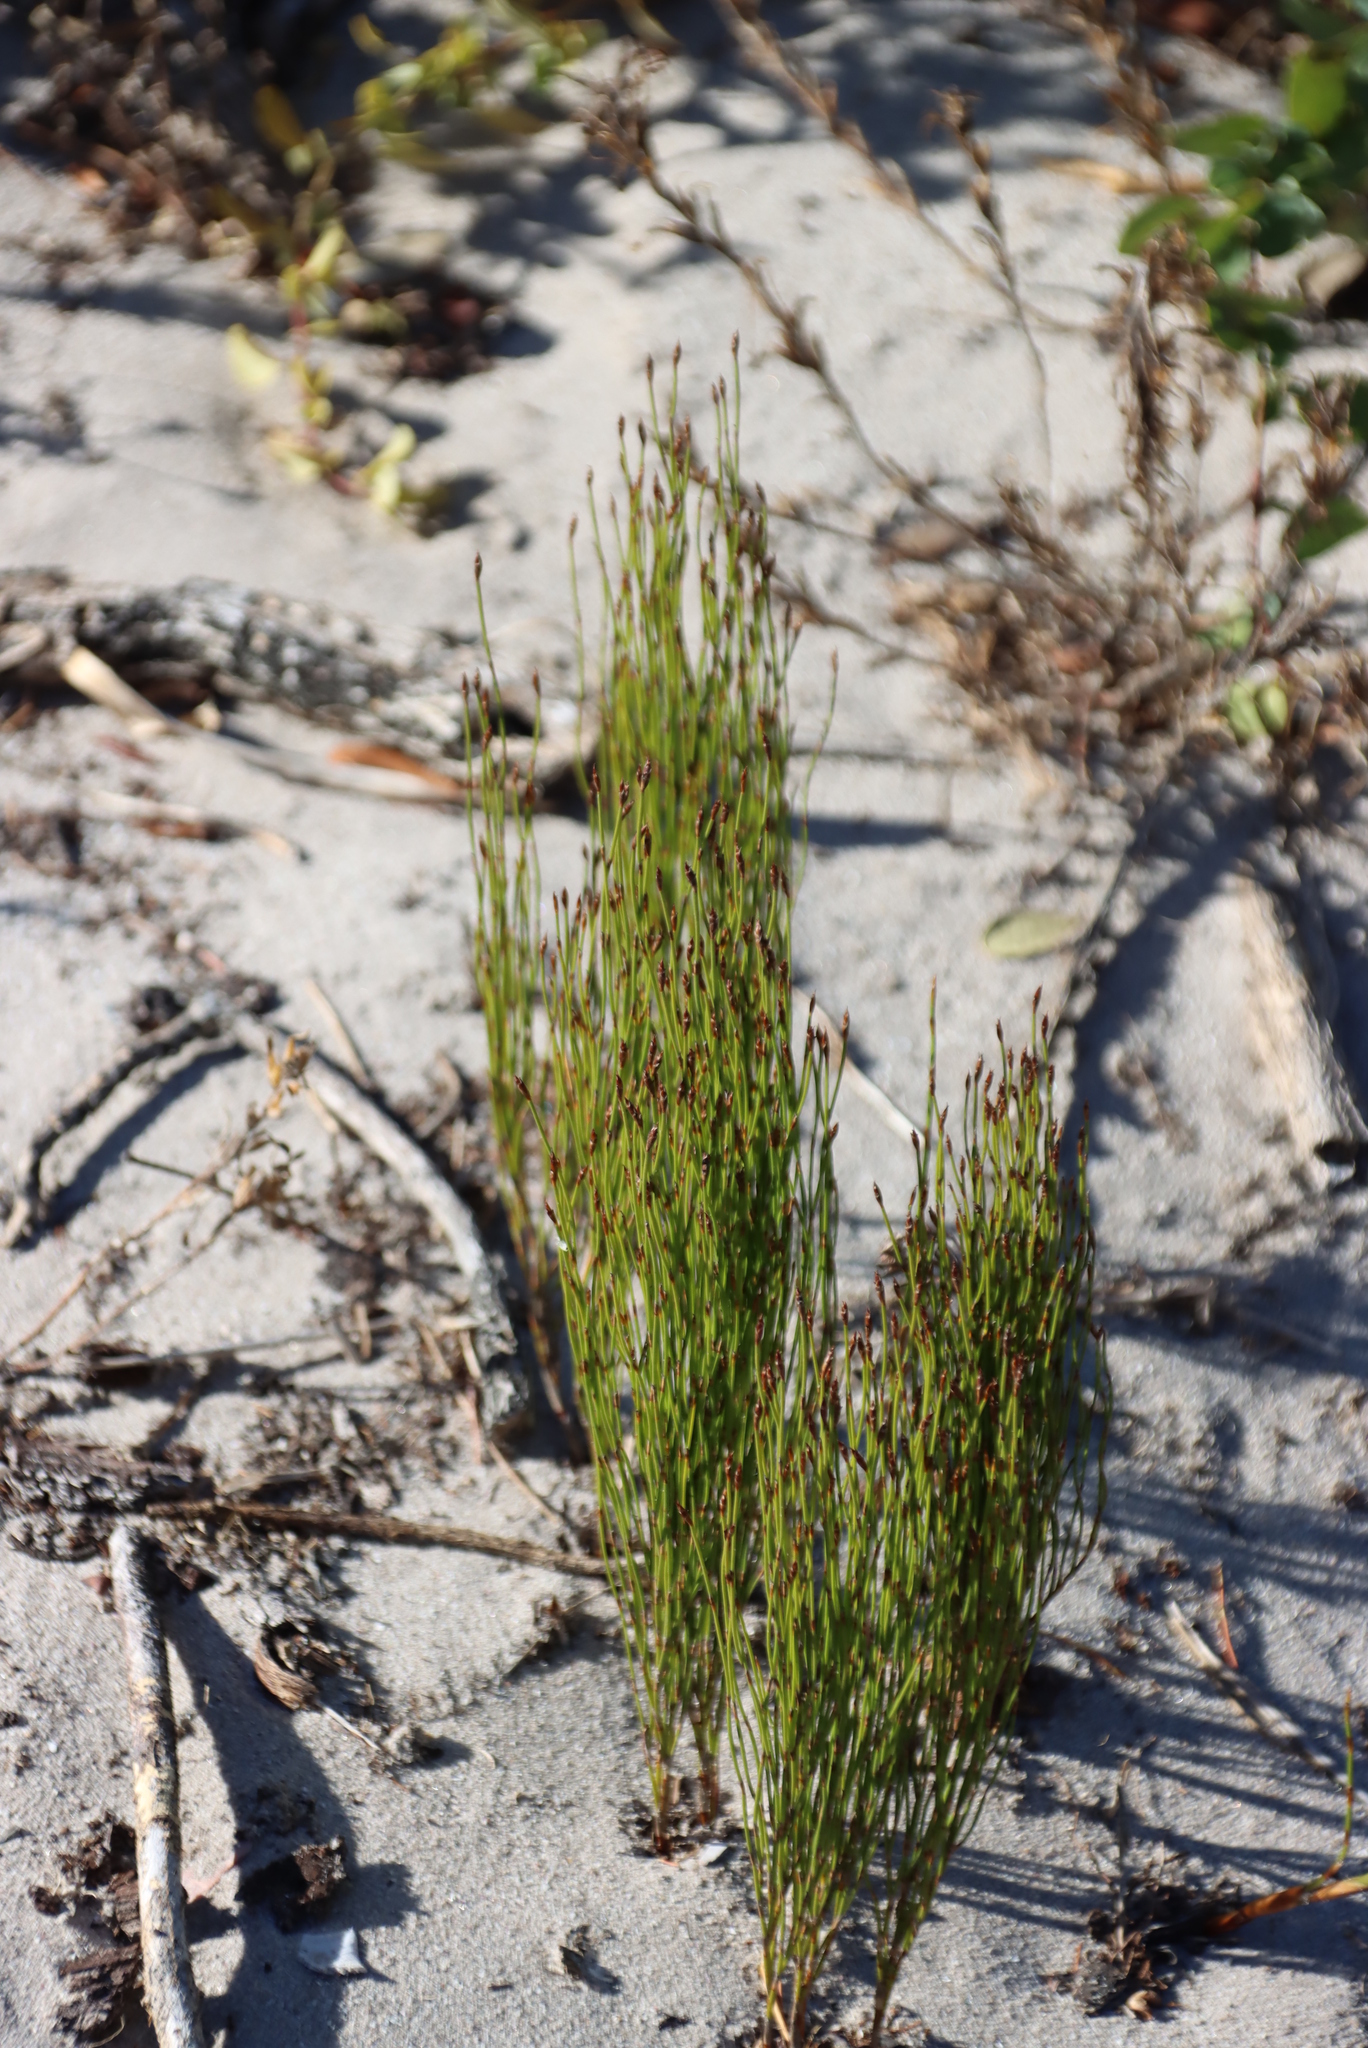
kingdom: Plantae
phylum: Tracheophyta
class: Liliopsida
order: Poales
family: Restionaceae
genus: Restio
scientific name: Restio eleocharis
